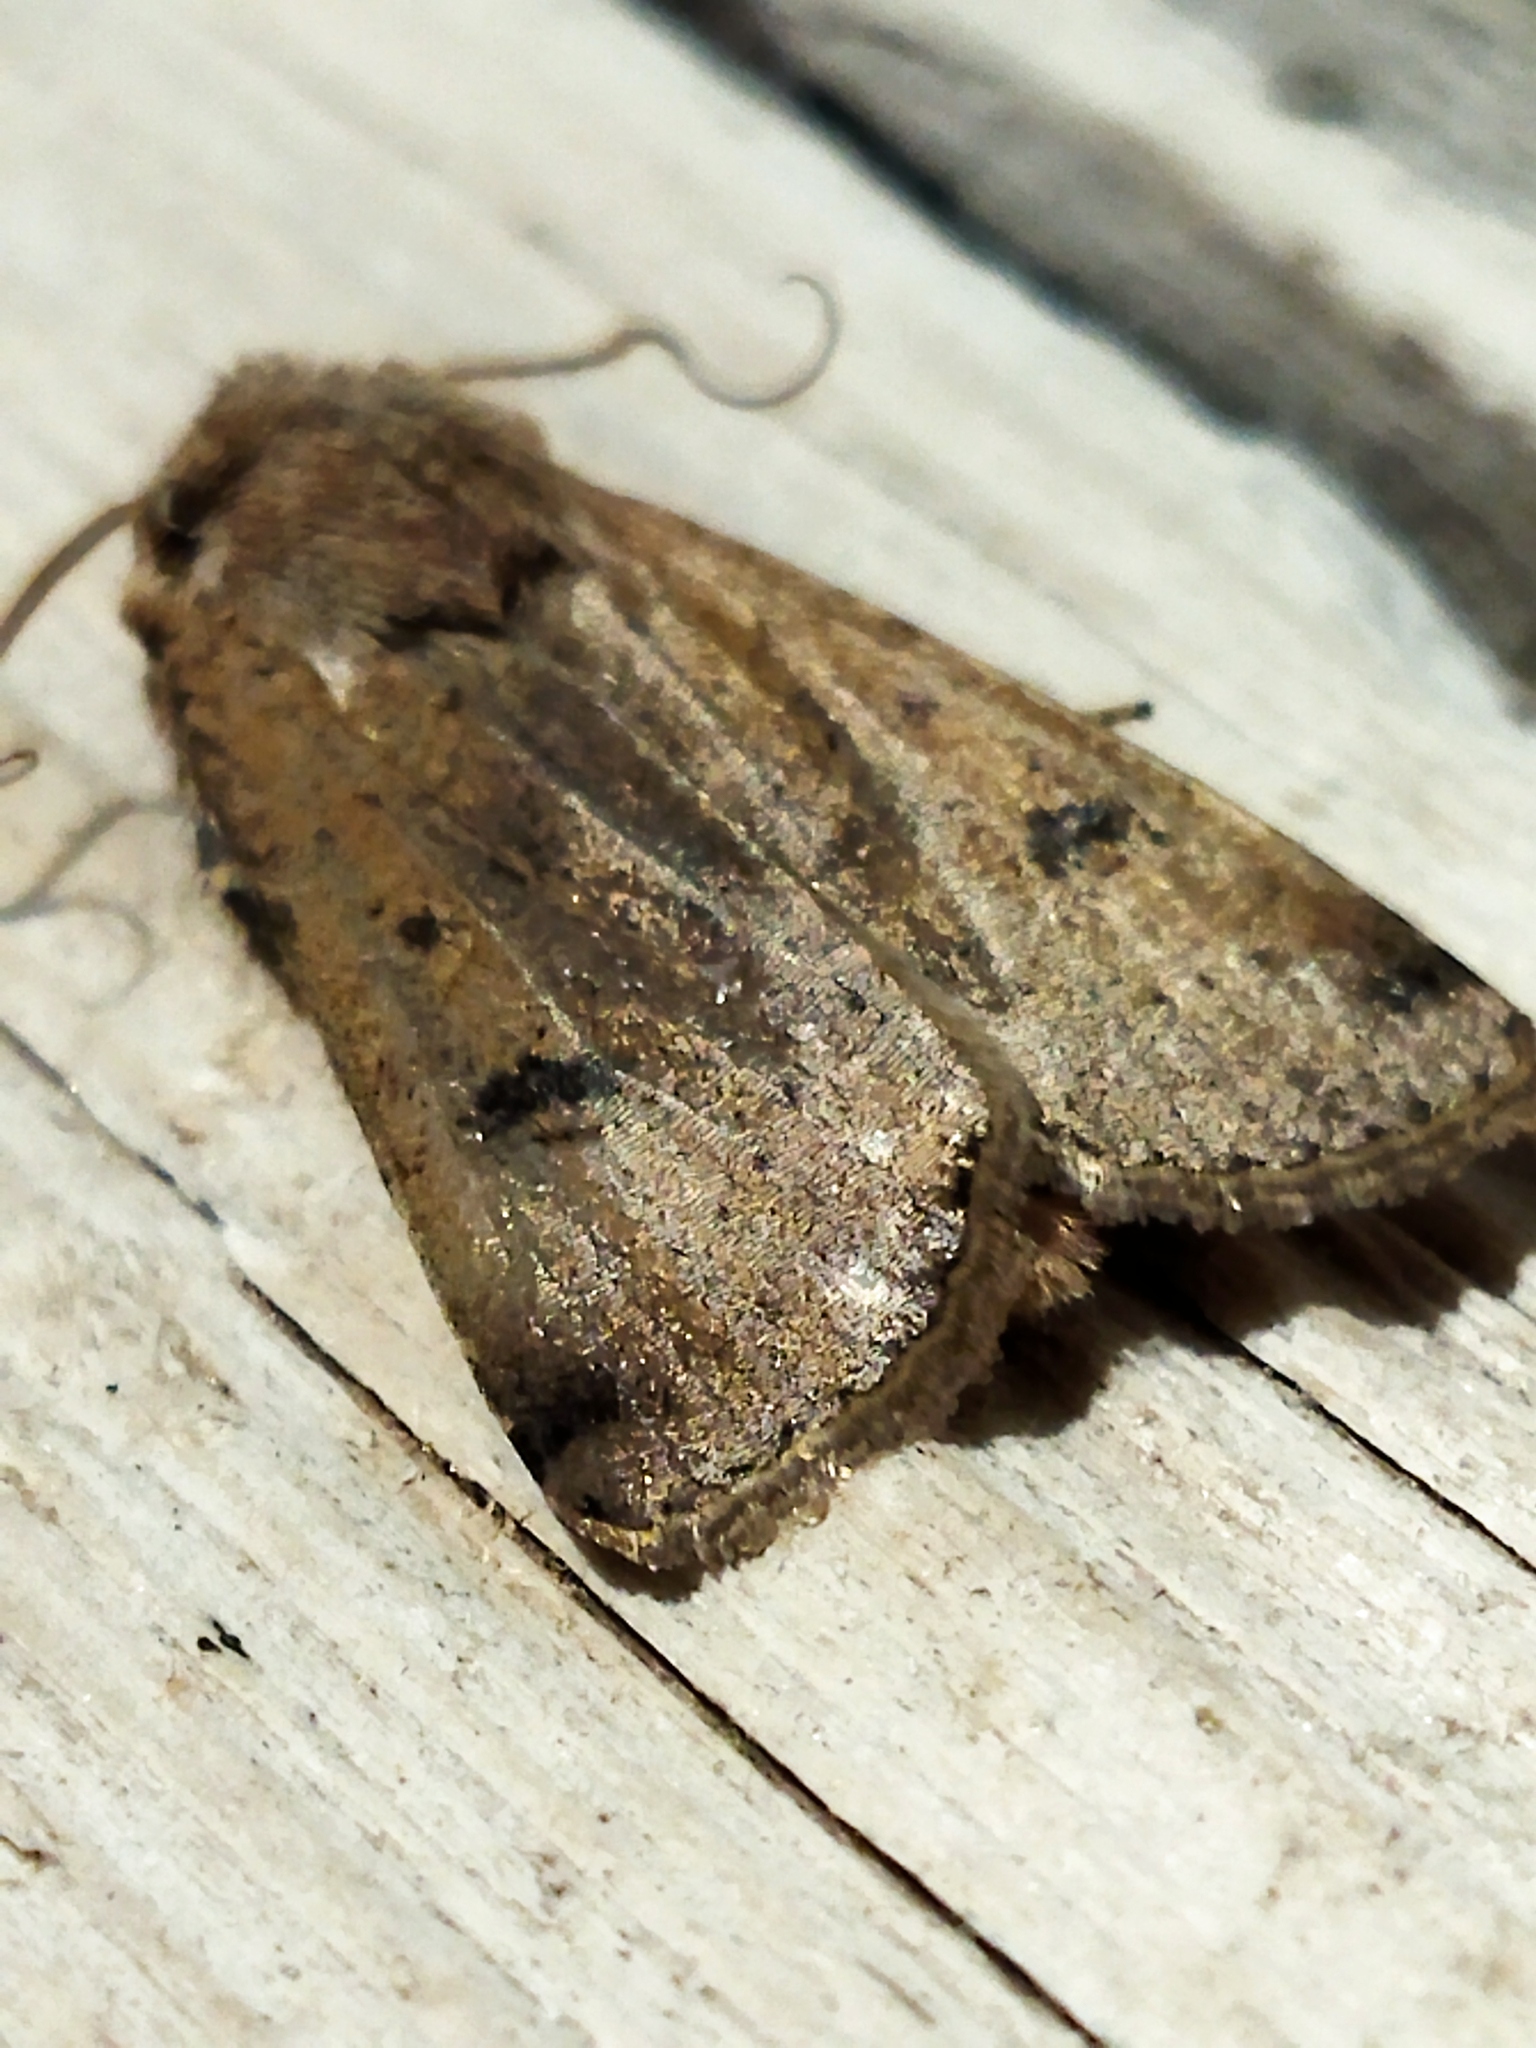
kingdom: Animalia
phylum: Arthropoda
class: Insecta
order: Lepidoptera
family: Noctuidae
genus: Agrotis
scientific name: Agrotis trux
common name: Crescent dart
